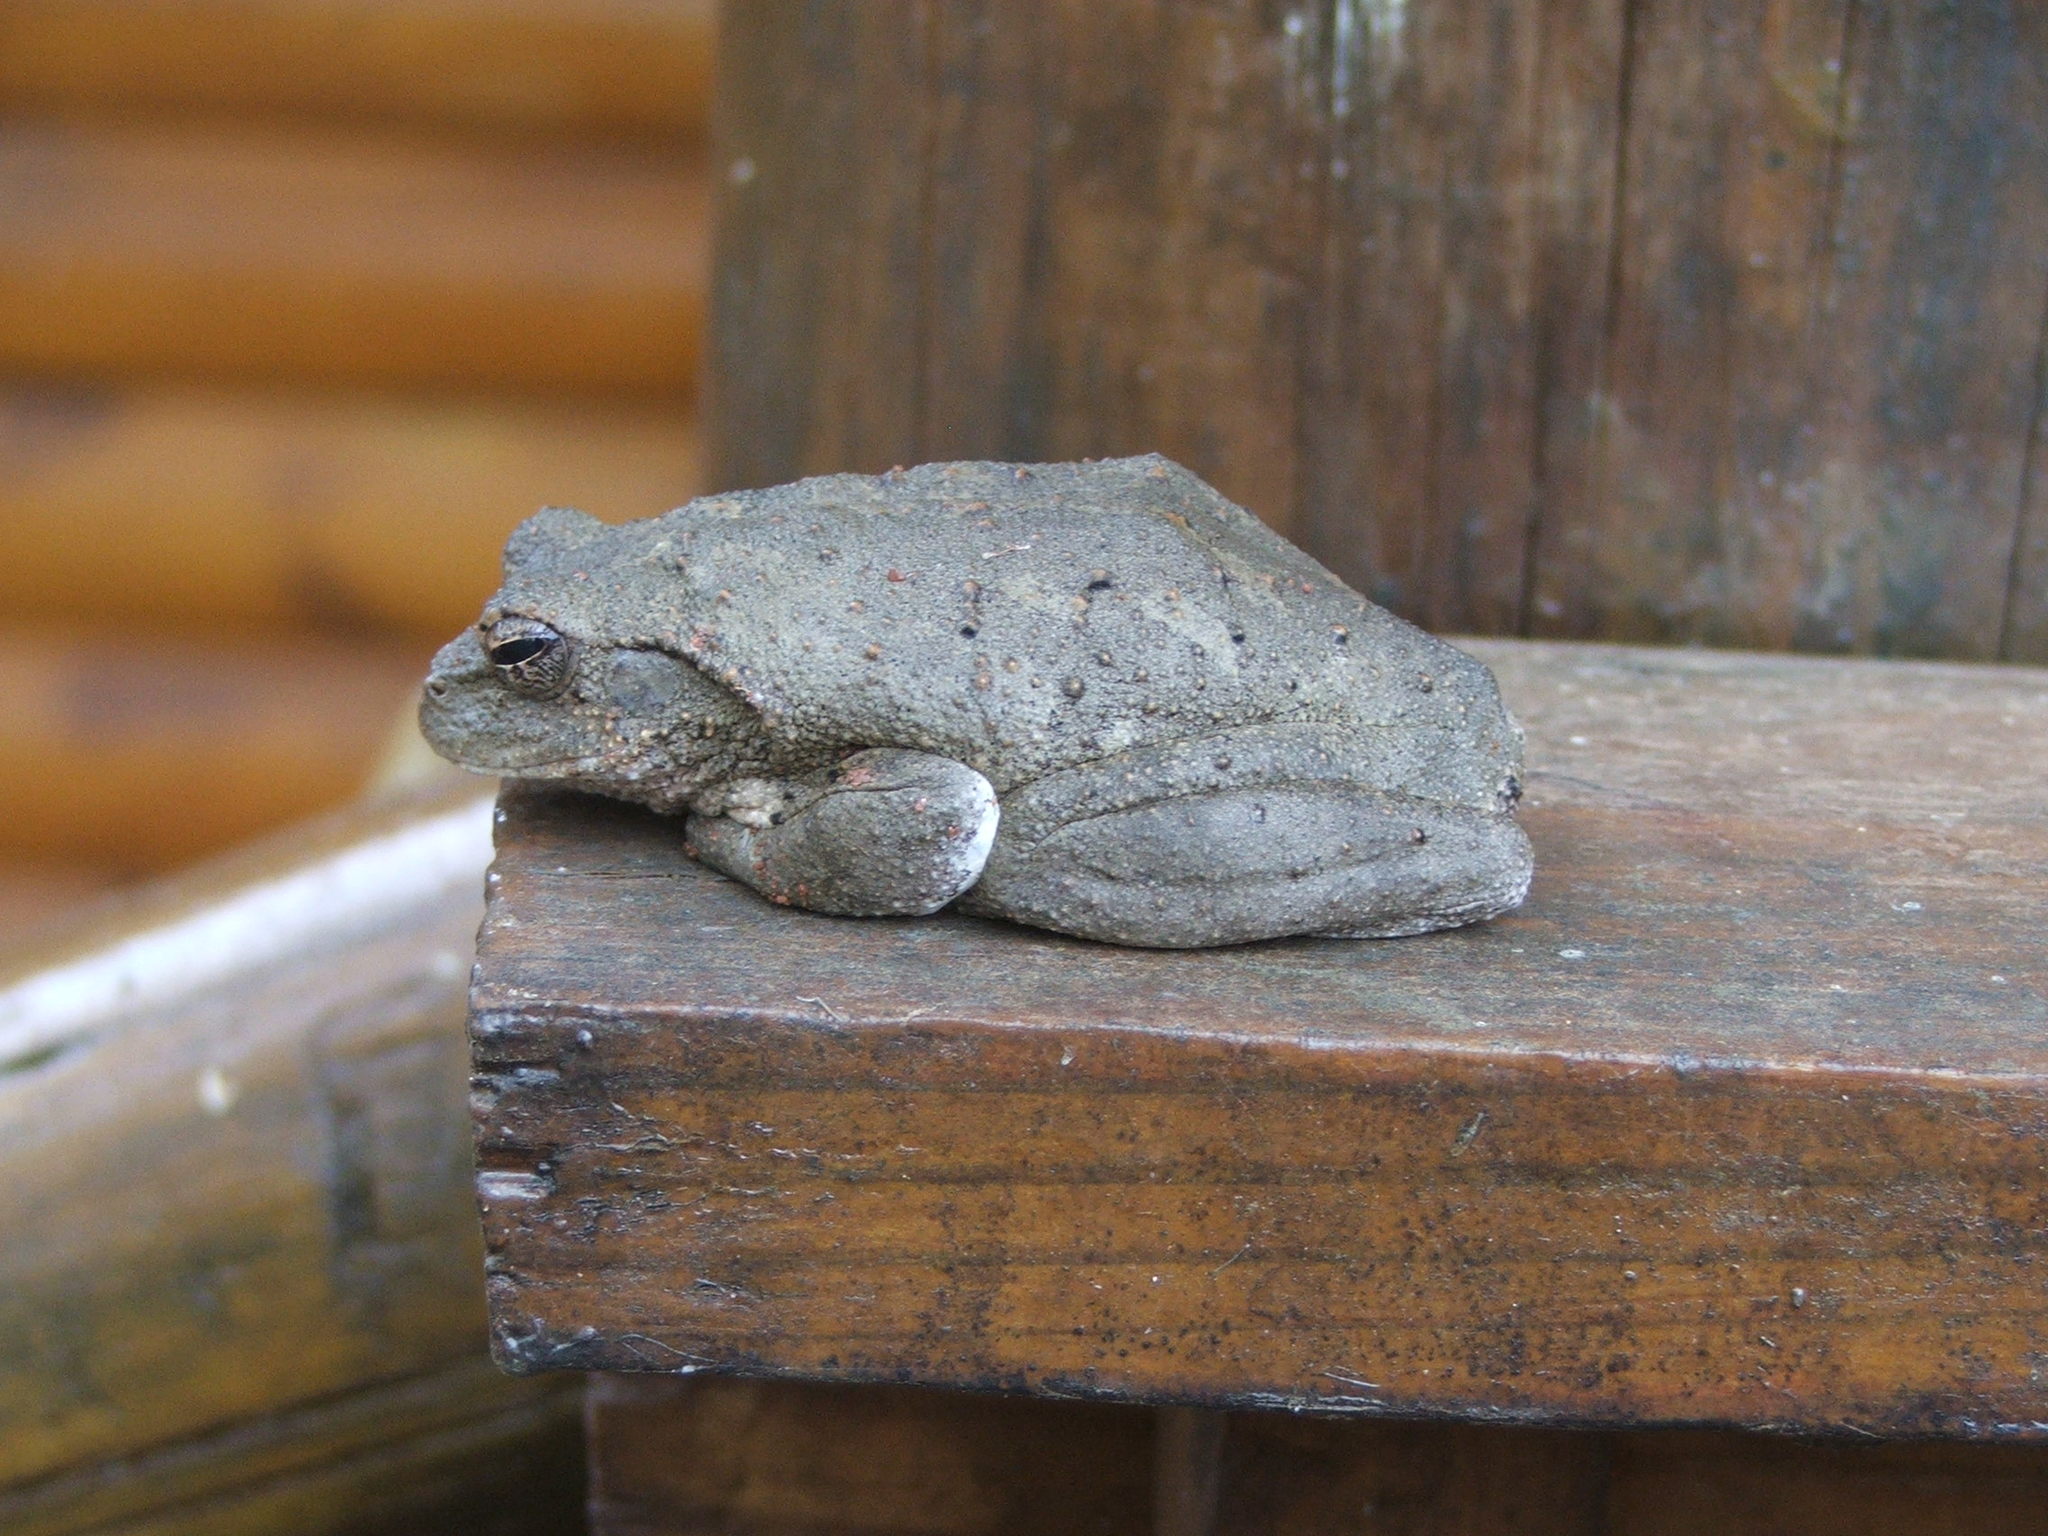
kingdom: Animalia
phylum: Chordata
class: Amphibia
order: Anura
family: Rhacophoridae
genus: Chiromantis
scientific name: Chiromantis xerampelina
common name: African gray treefrog
